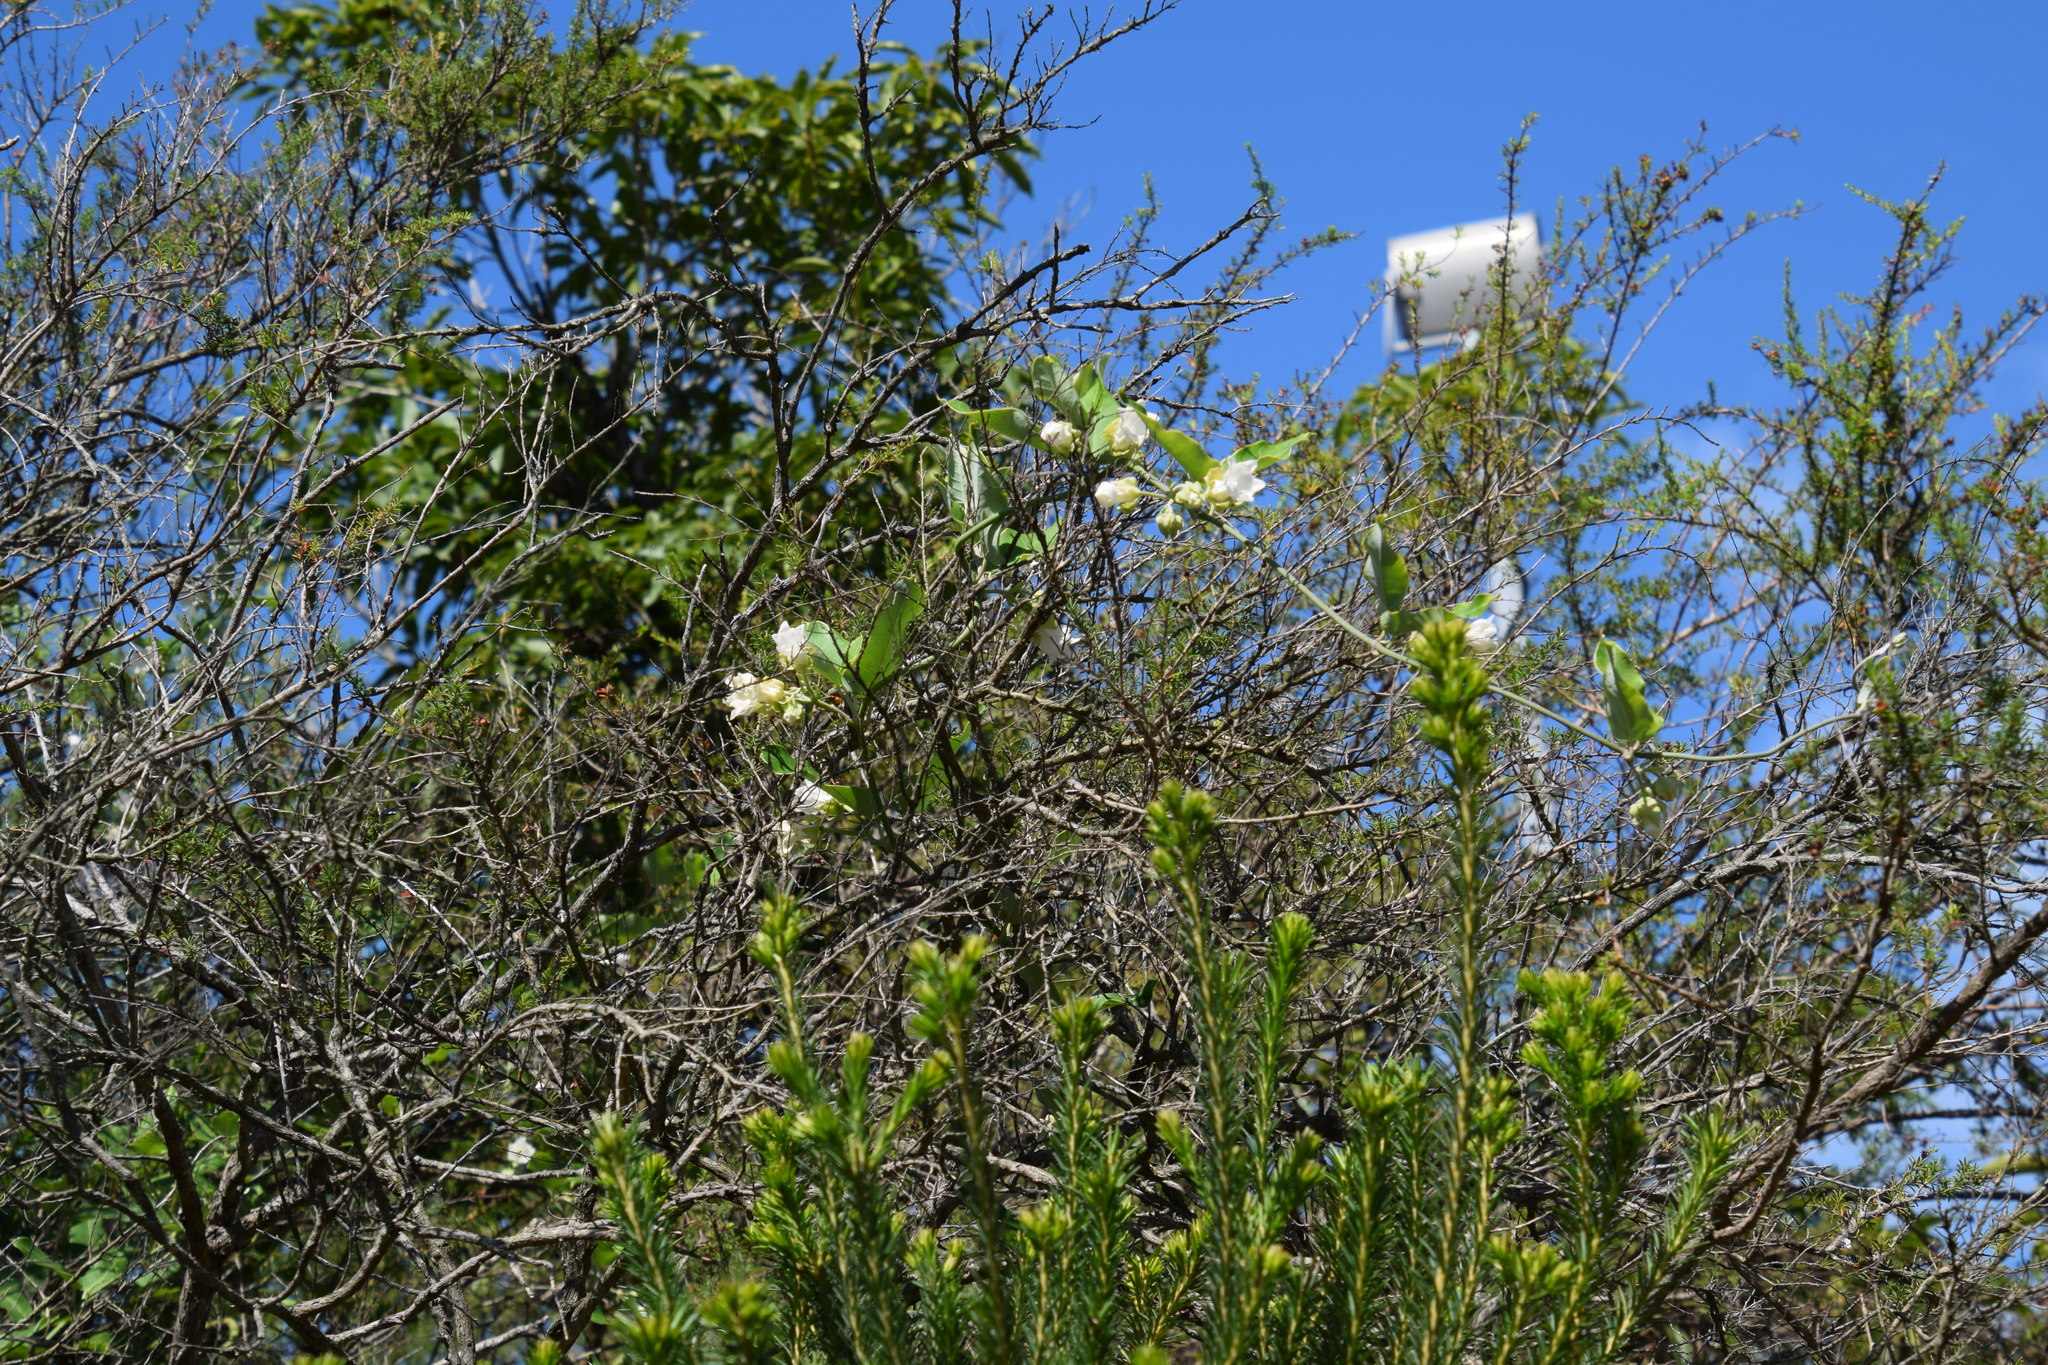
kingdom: Plantae
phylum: Tracheophyta
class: Magnoliopsida
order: Gentianales
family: Apocynaceae
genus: Araujia
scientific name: Araujia sericifera
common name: White bladderflower
